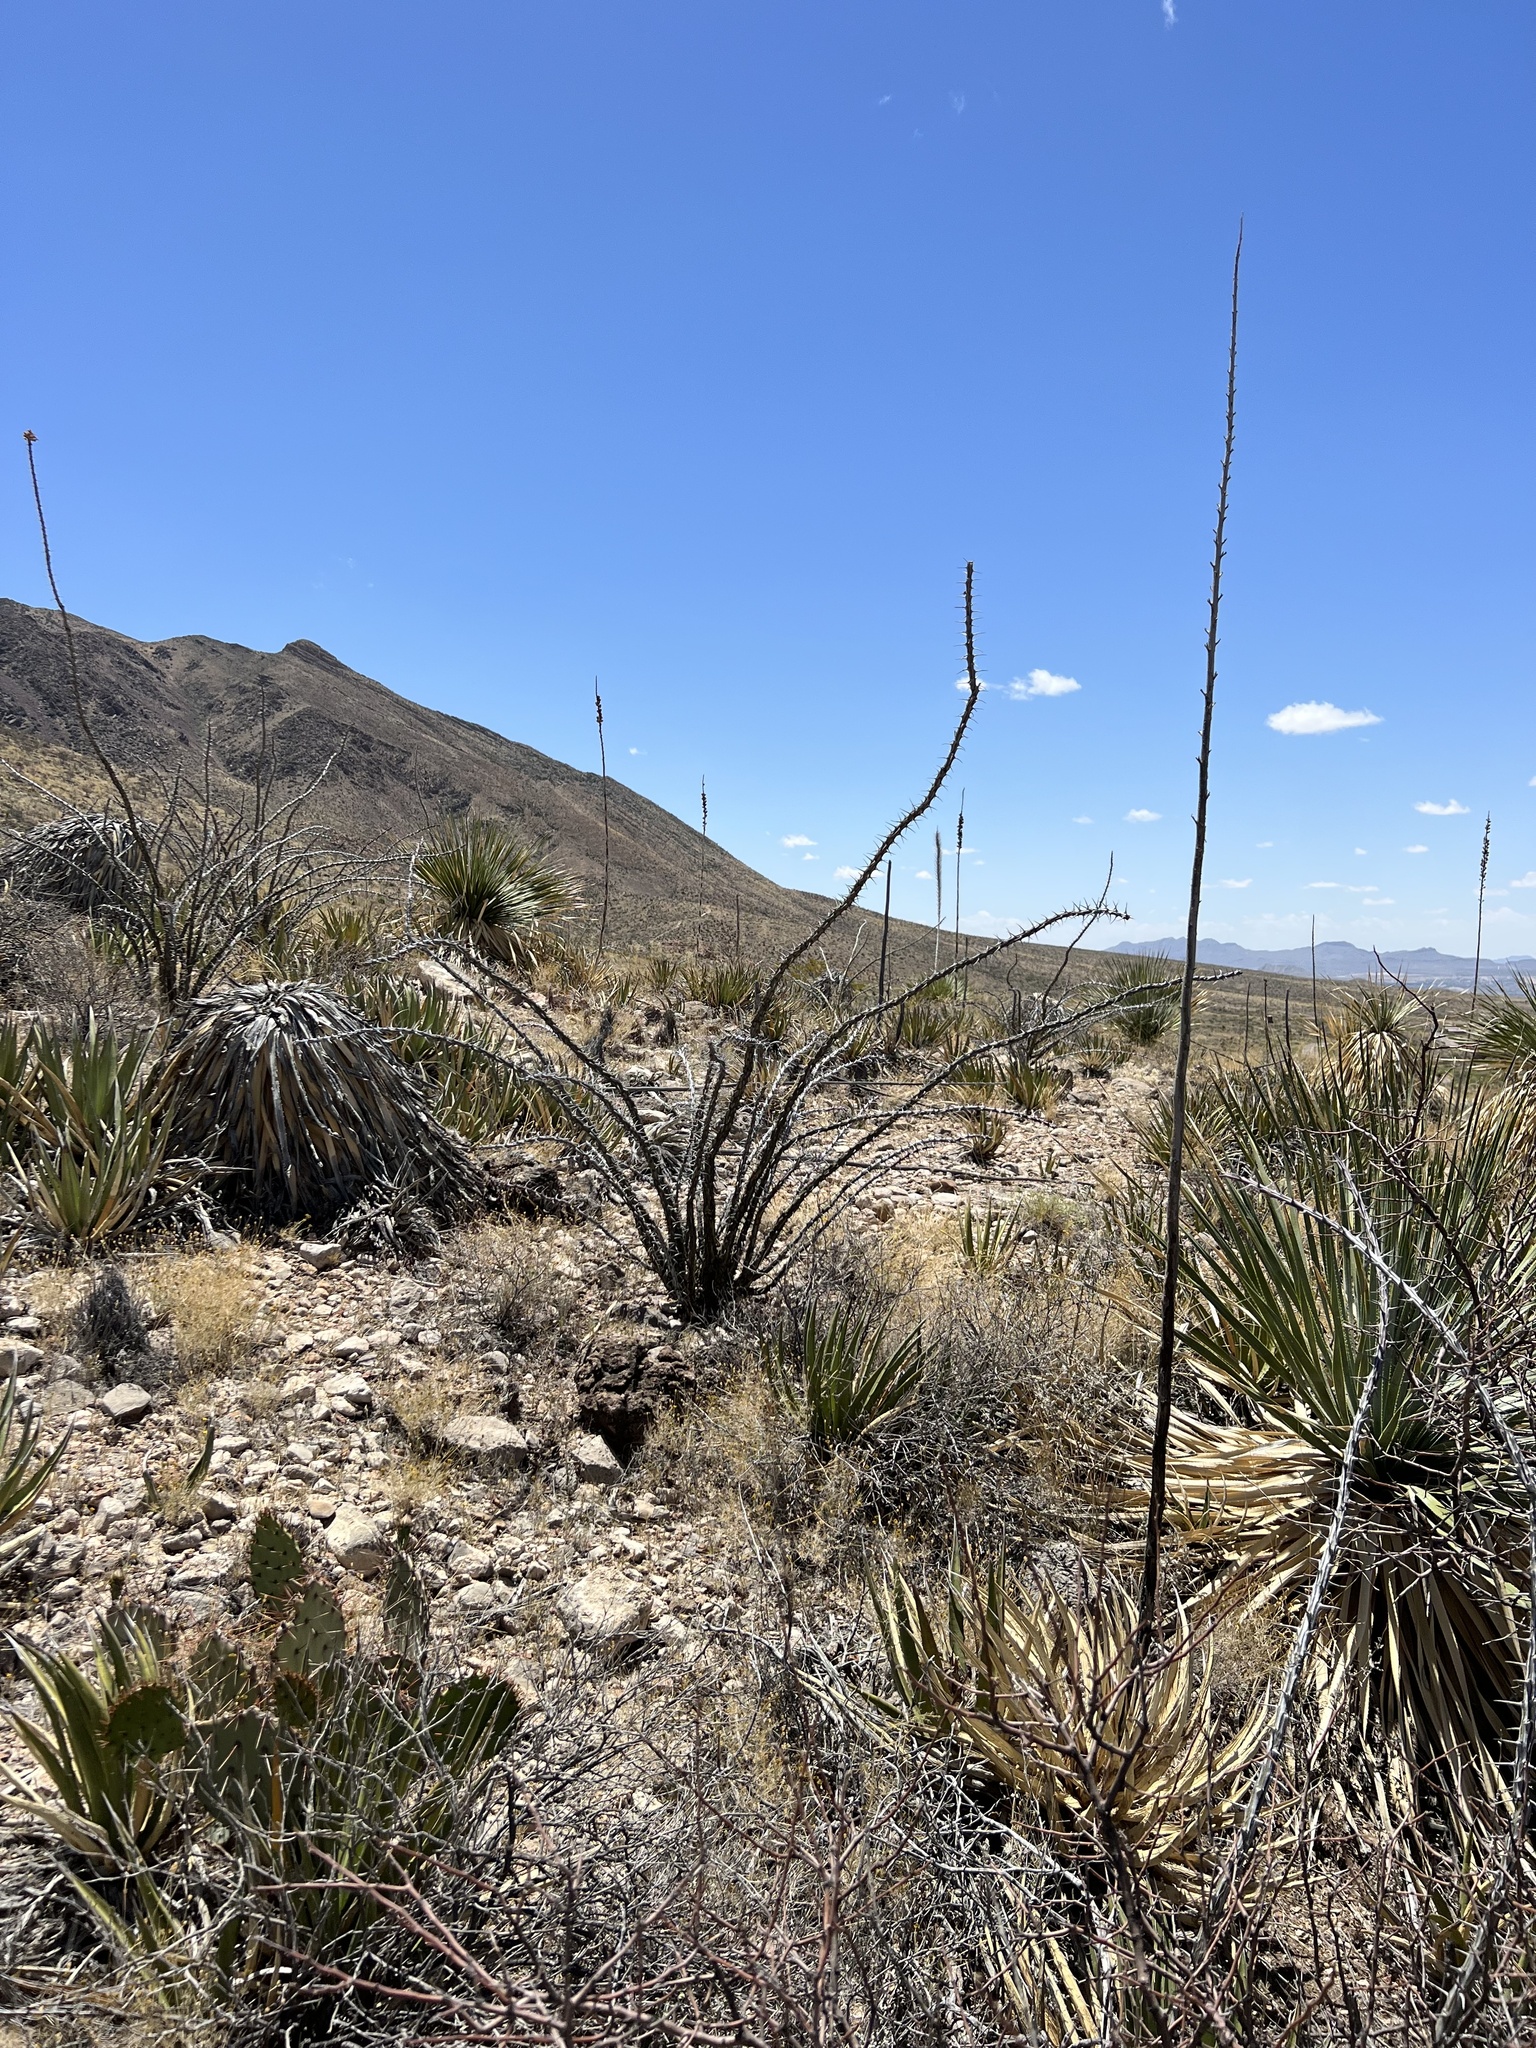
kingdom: Plantae
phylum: Tracheophyta
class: Magnoliopsida
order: Ericales
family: Fouquieriaceae
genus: Fouquieria
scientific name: Fouquieria splendens
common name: Vine-cactus
